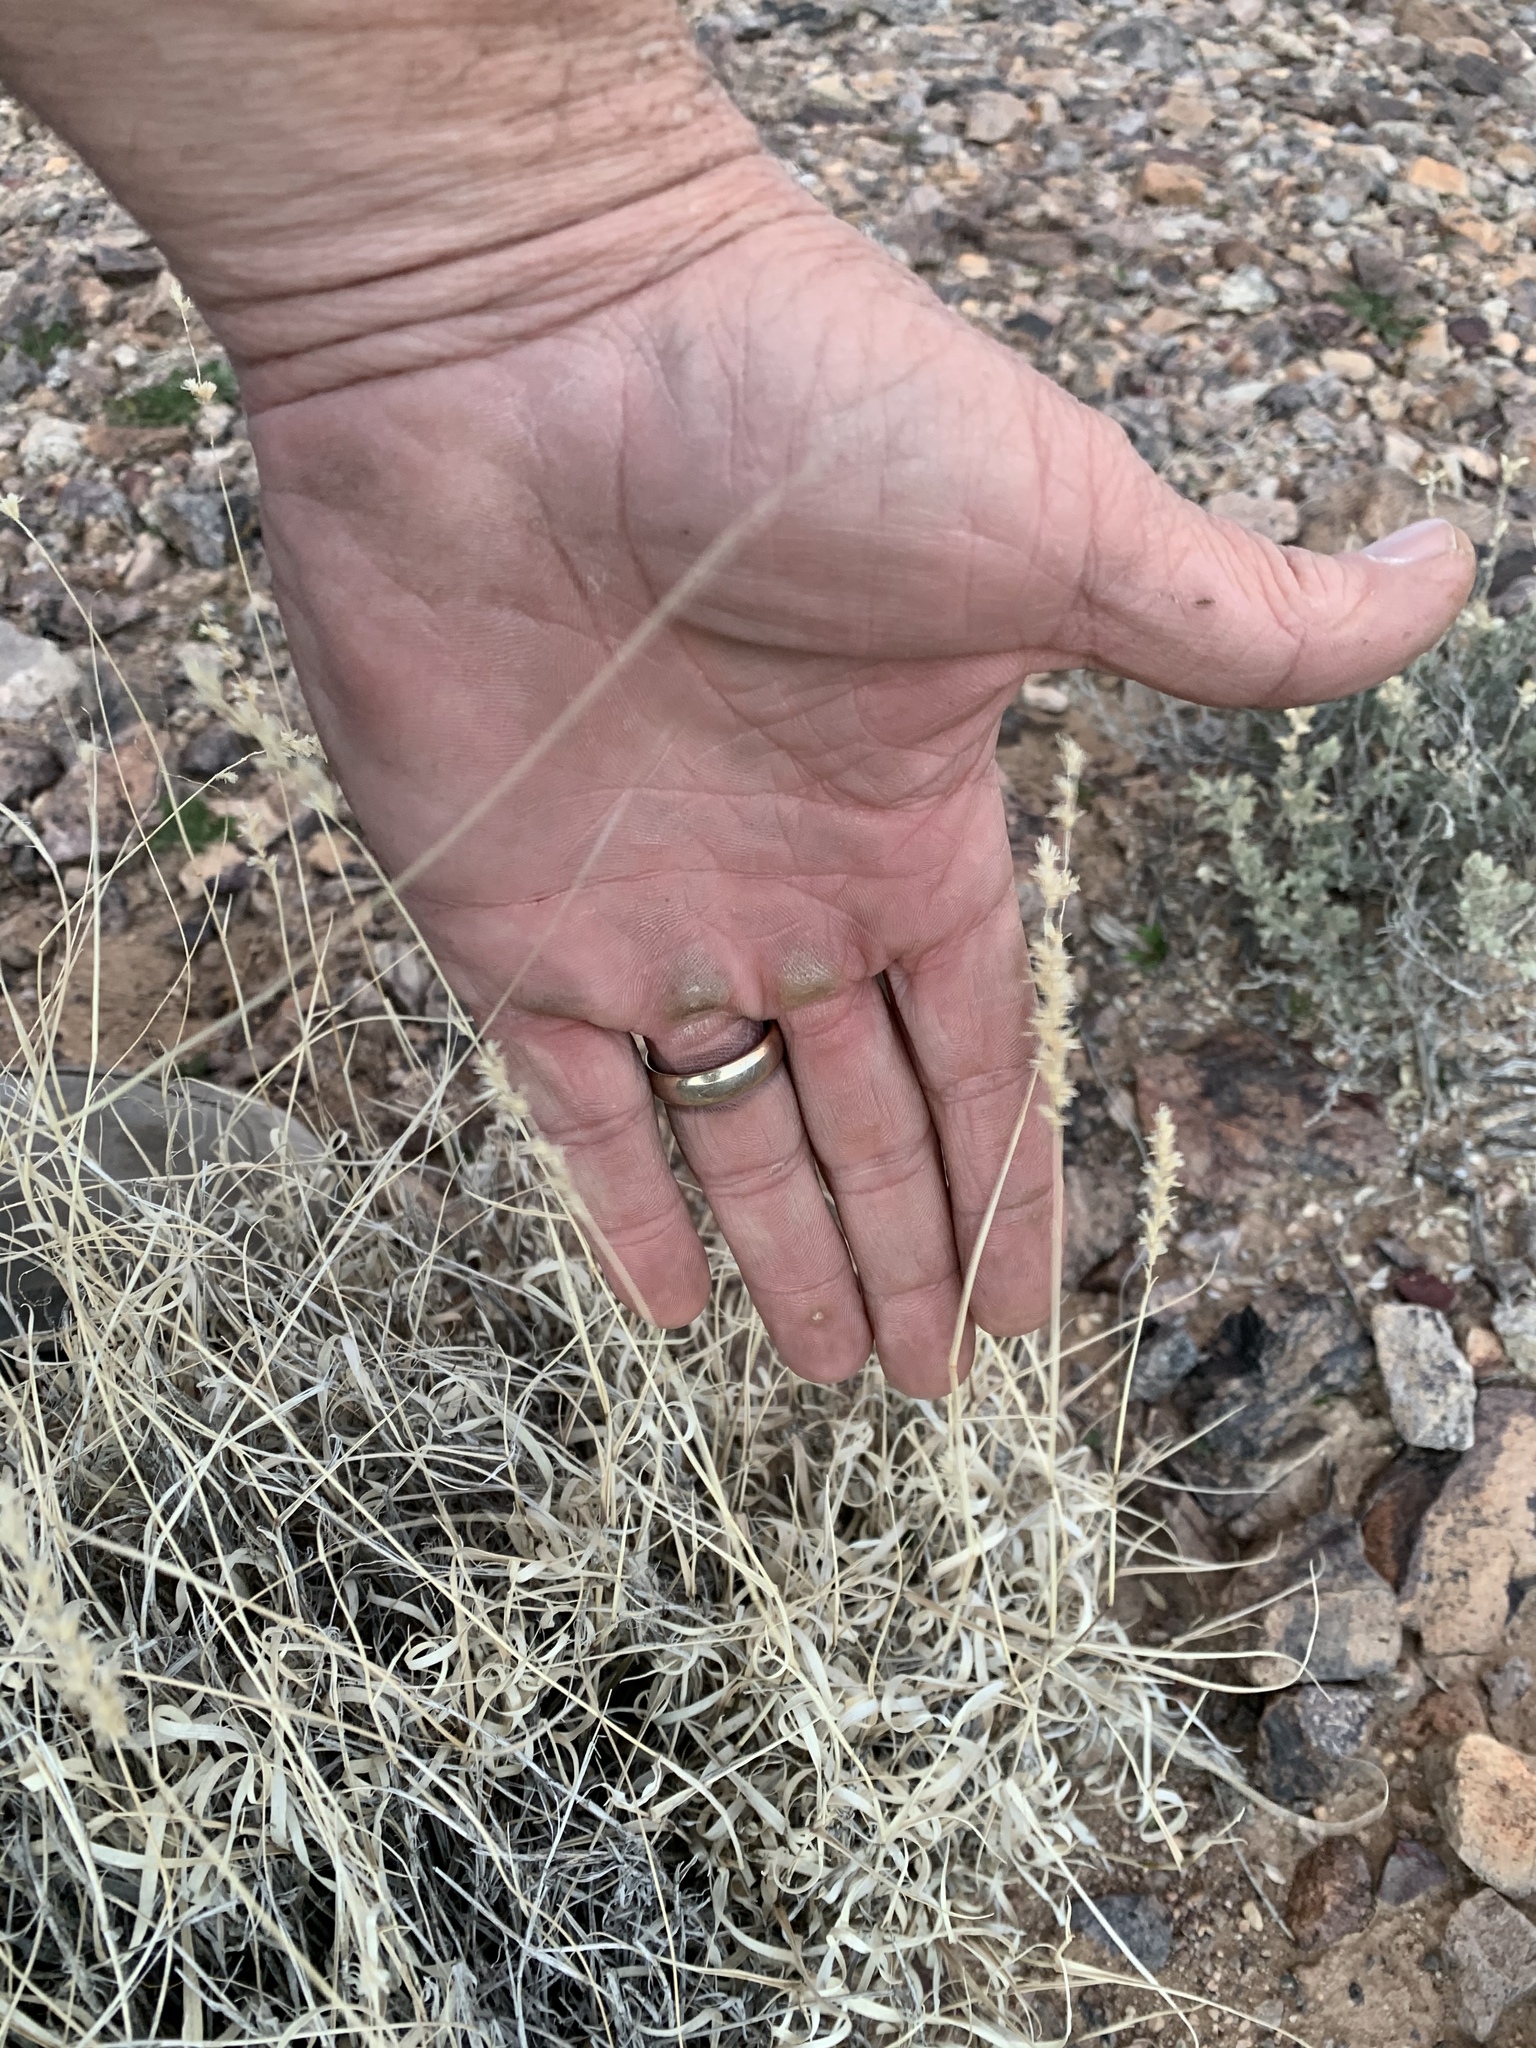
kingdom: Plantae
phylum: Tracheophyta
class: Liliopsida
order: Poales
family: Poaceae
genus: Hilaria
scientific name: Hilaria belangeri
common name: Curly-mesquite
